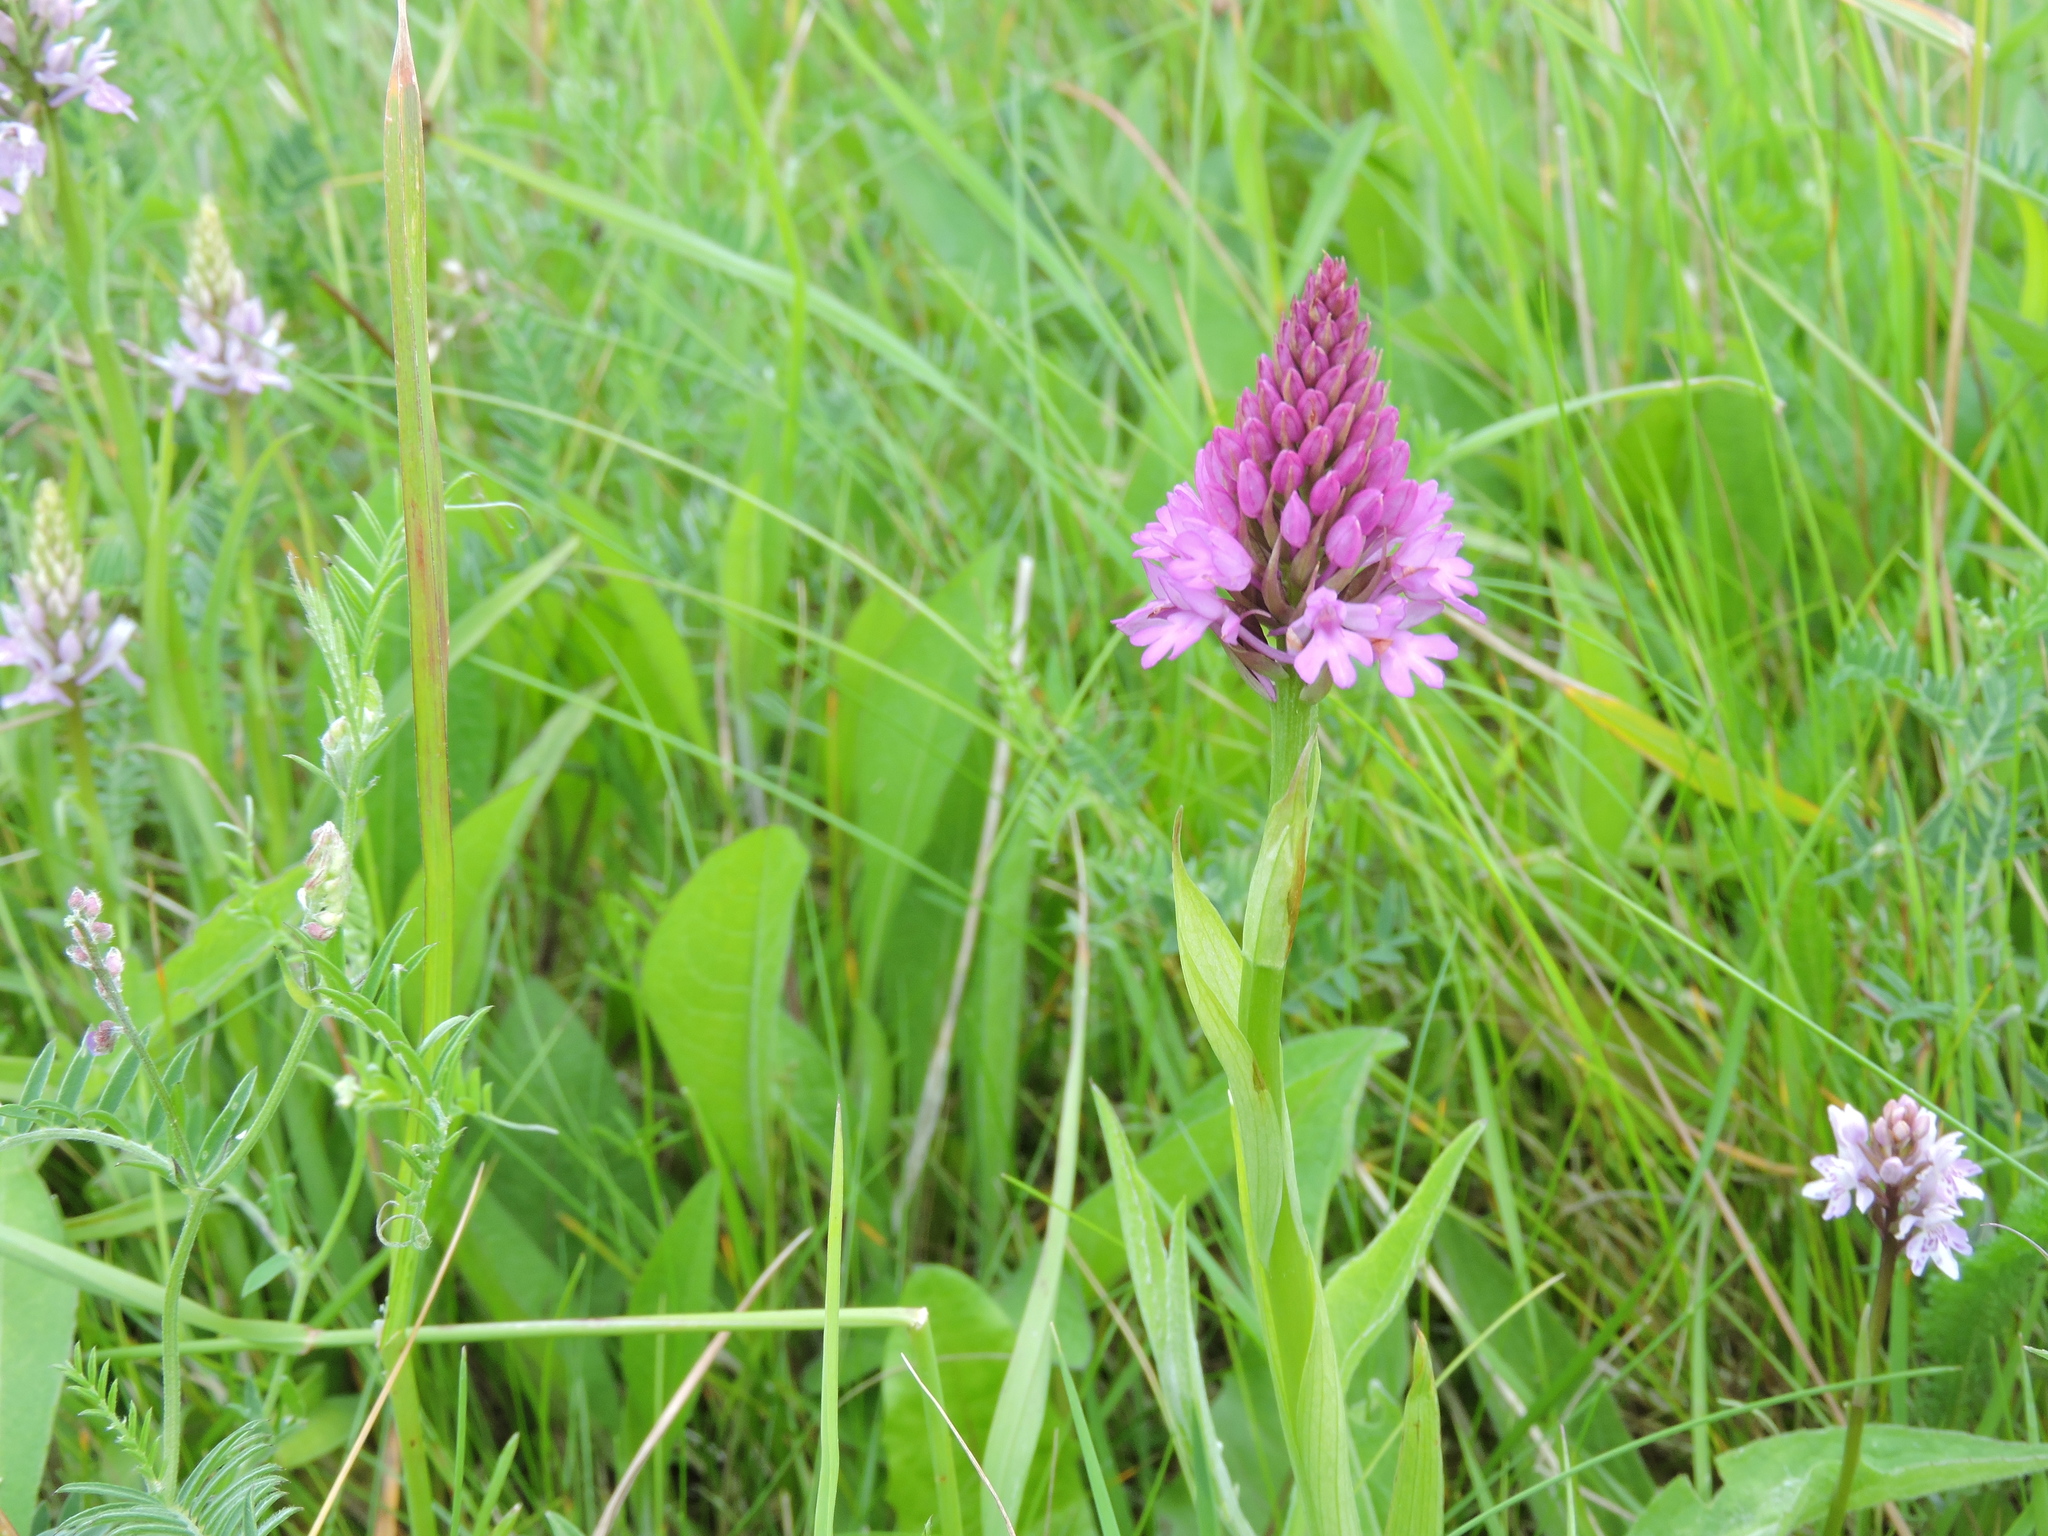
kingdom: Plantae
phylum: Tracheophyta
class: Liliopsida
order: Asparagales
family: Orchidaceae
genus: Anacamptis
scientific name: Anacamptis pyramidalis
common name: Pyramidal orchid
